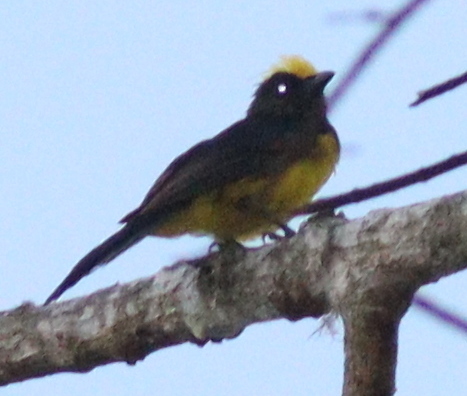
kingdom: Animalia
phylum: Chordata
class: Aves
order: Passeriformes
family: Paridae
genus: Melanochlora
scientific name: Melanochlora sultanea
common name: Sultan tit
